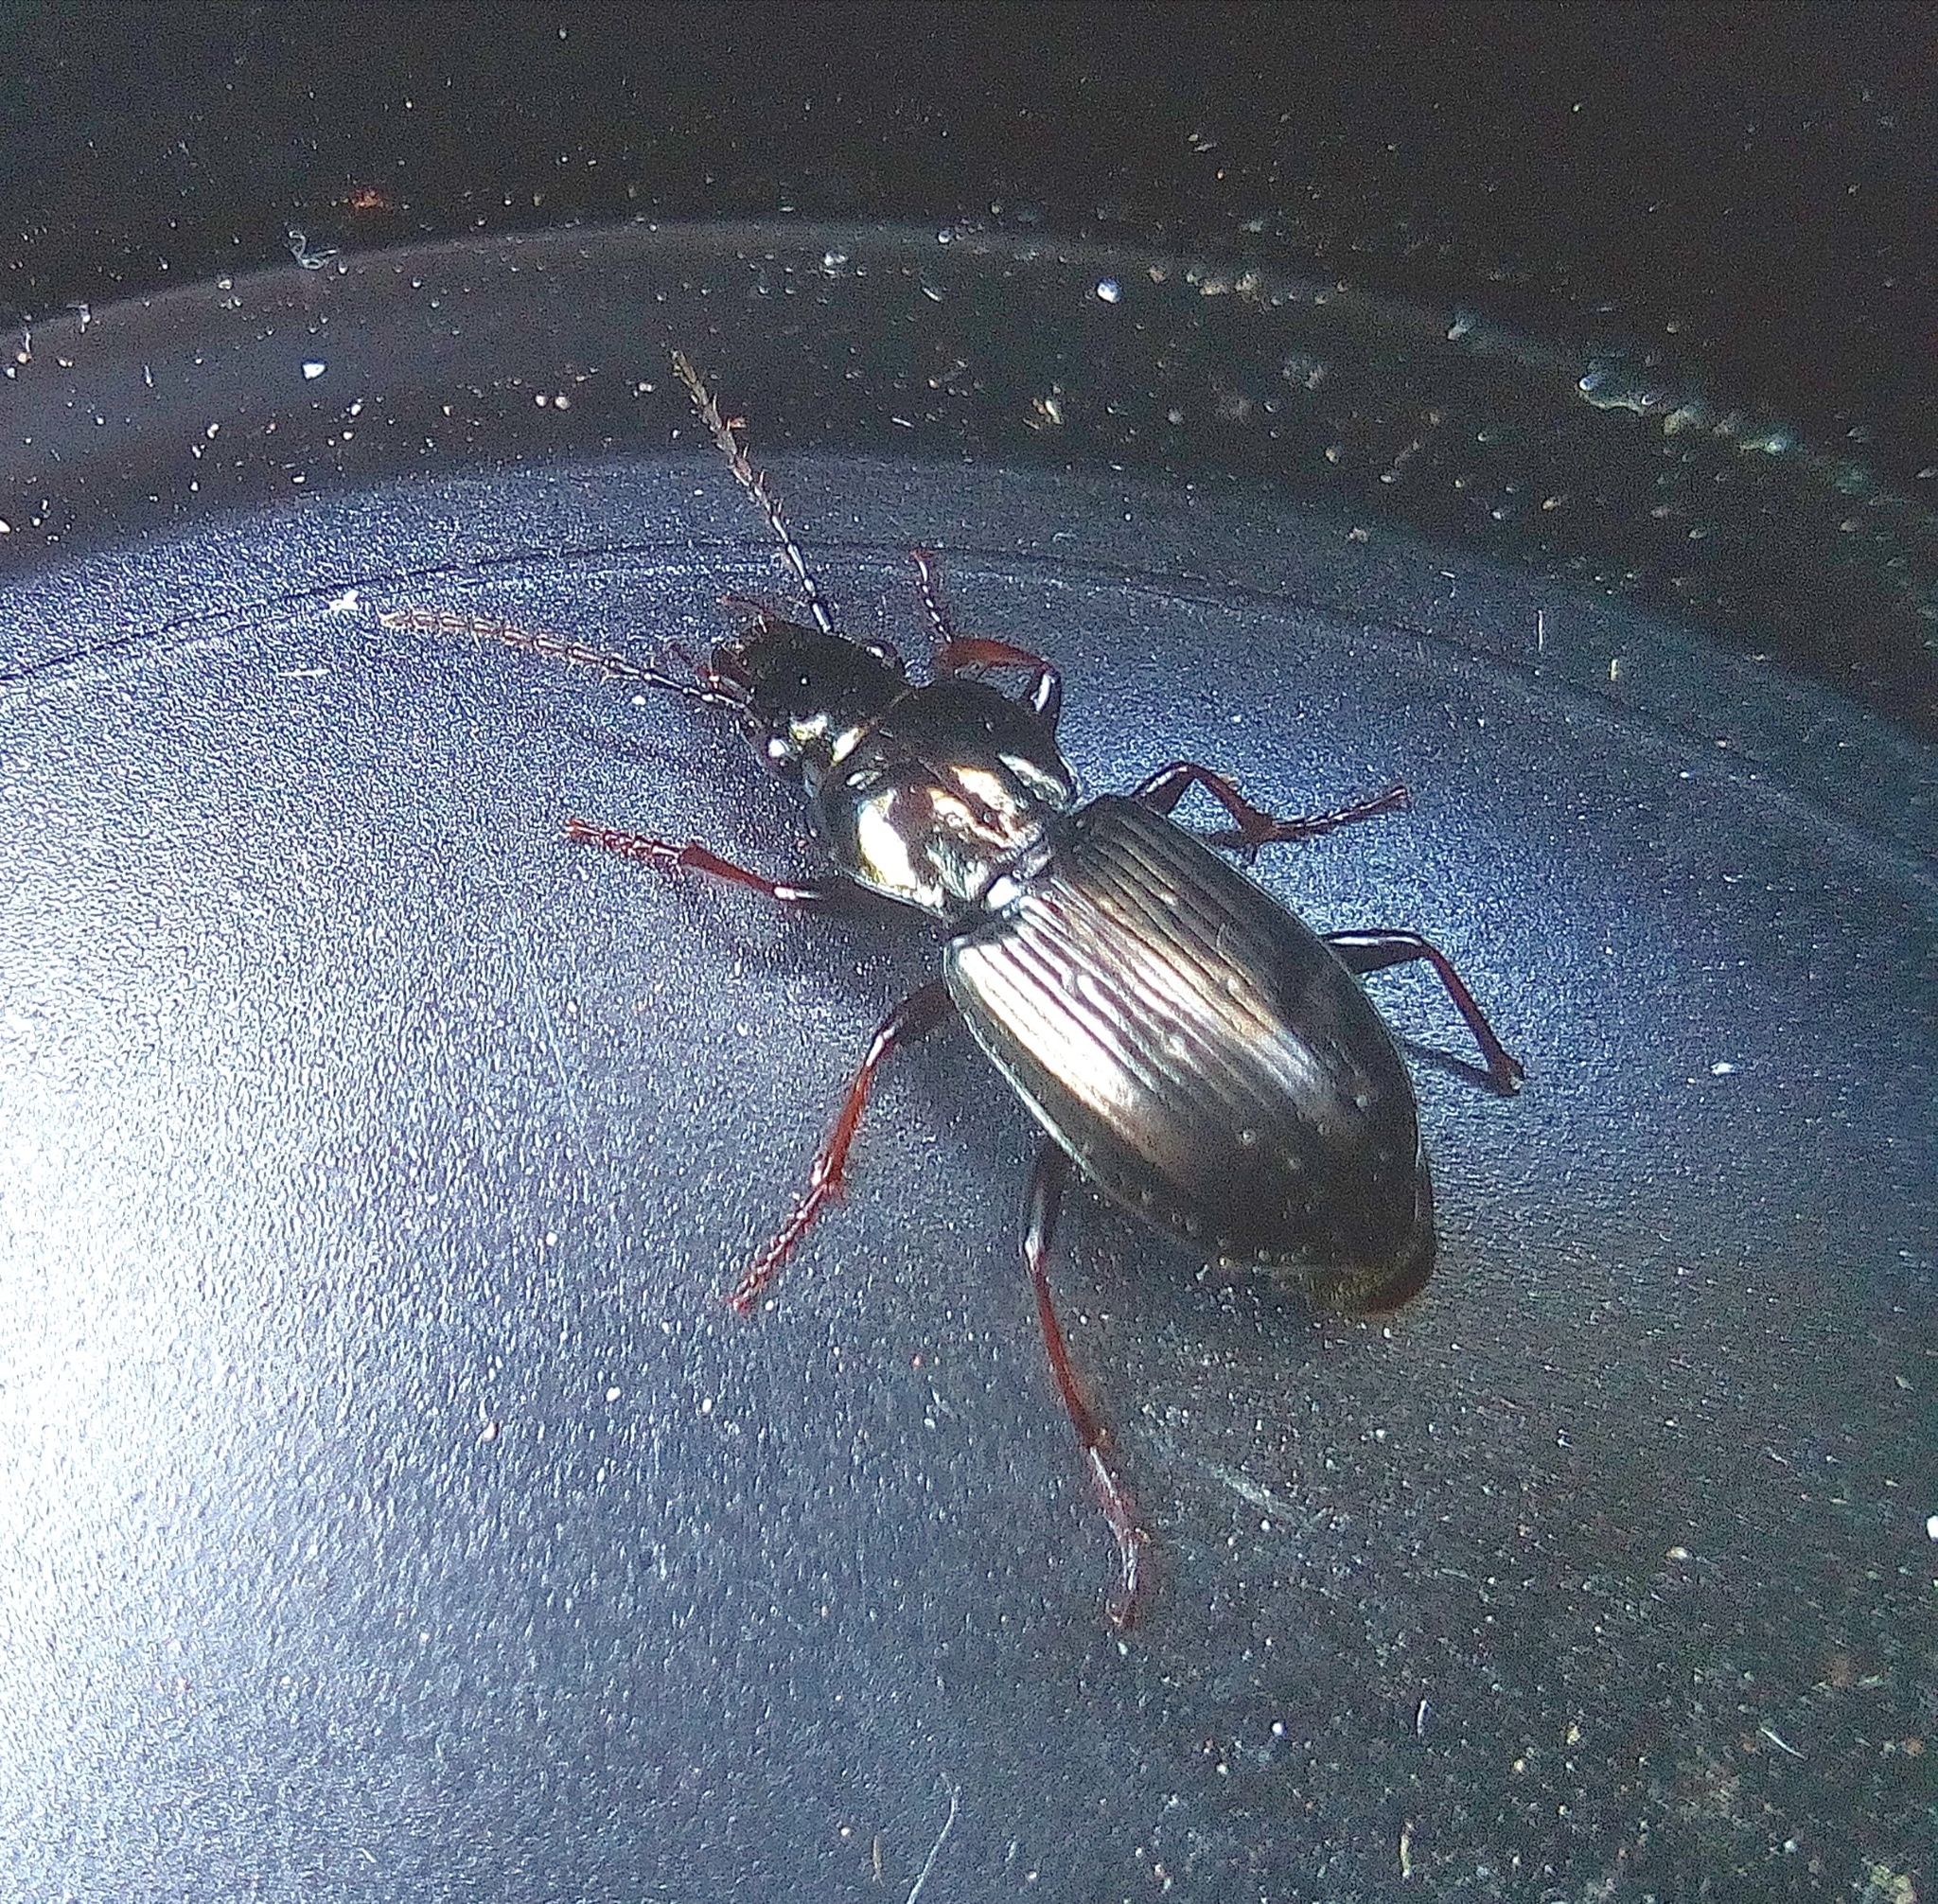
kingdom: Animalia
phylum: Arthropoda
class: Insecta
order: Coleoptera
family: Carabidae
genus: Pterostichus
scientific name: Pterostichus oblongopunctatus
